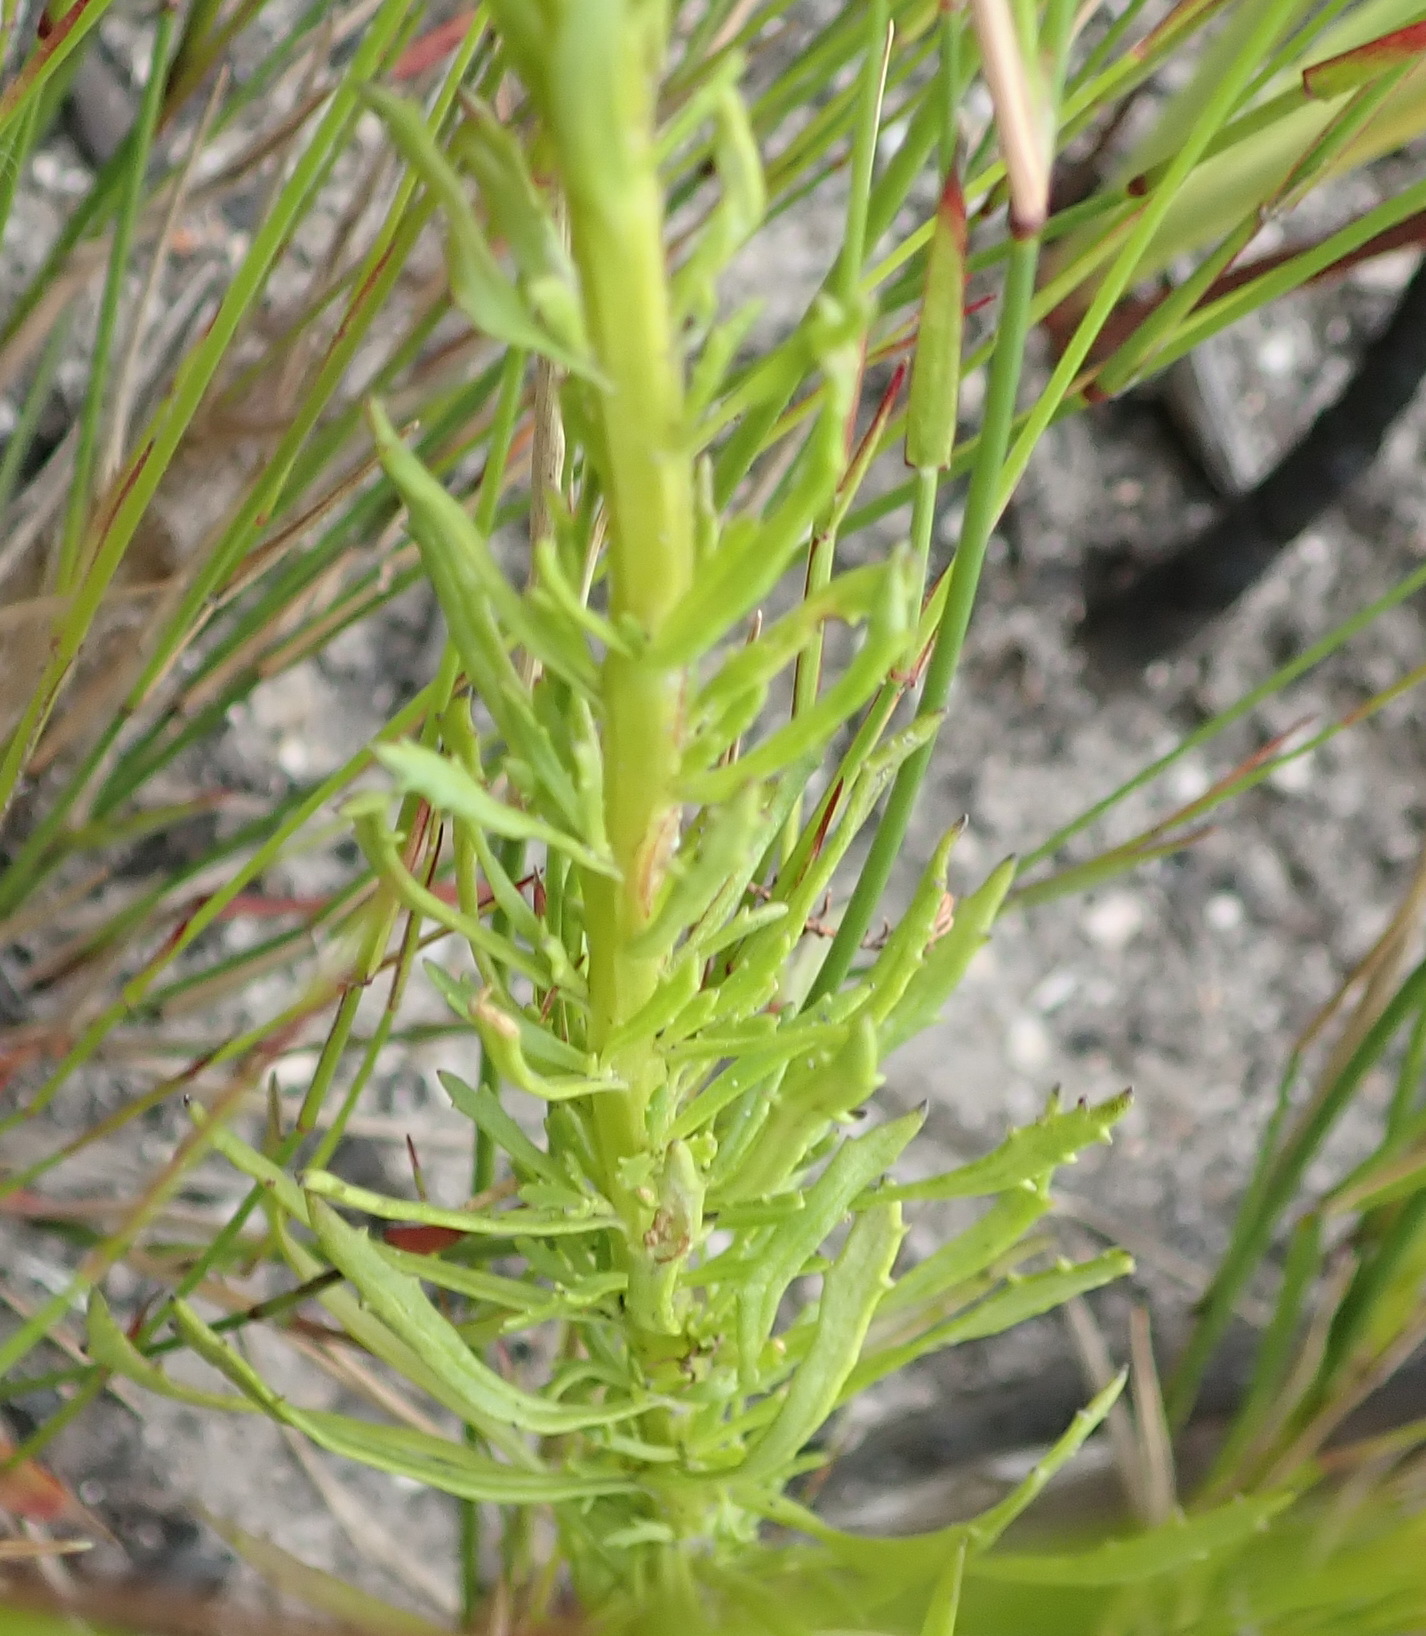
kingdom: Plantae
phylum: Tracheophyta
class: Magnoliopsida
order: Lamiales
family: Scrophulariaceae
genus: Pseudoselago
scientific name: Pseudoselago outeniquensis
